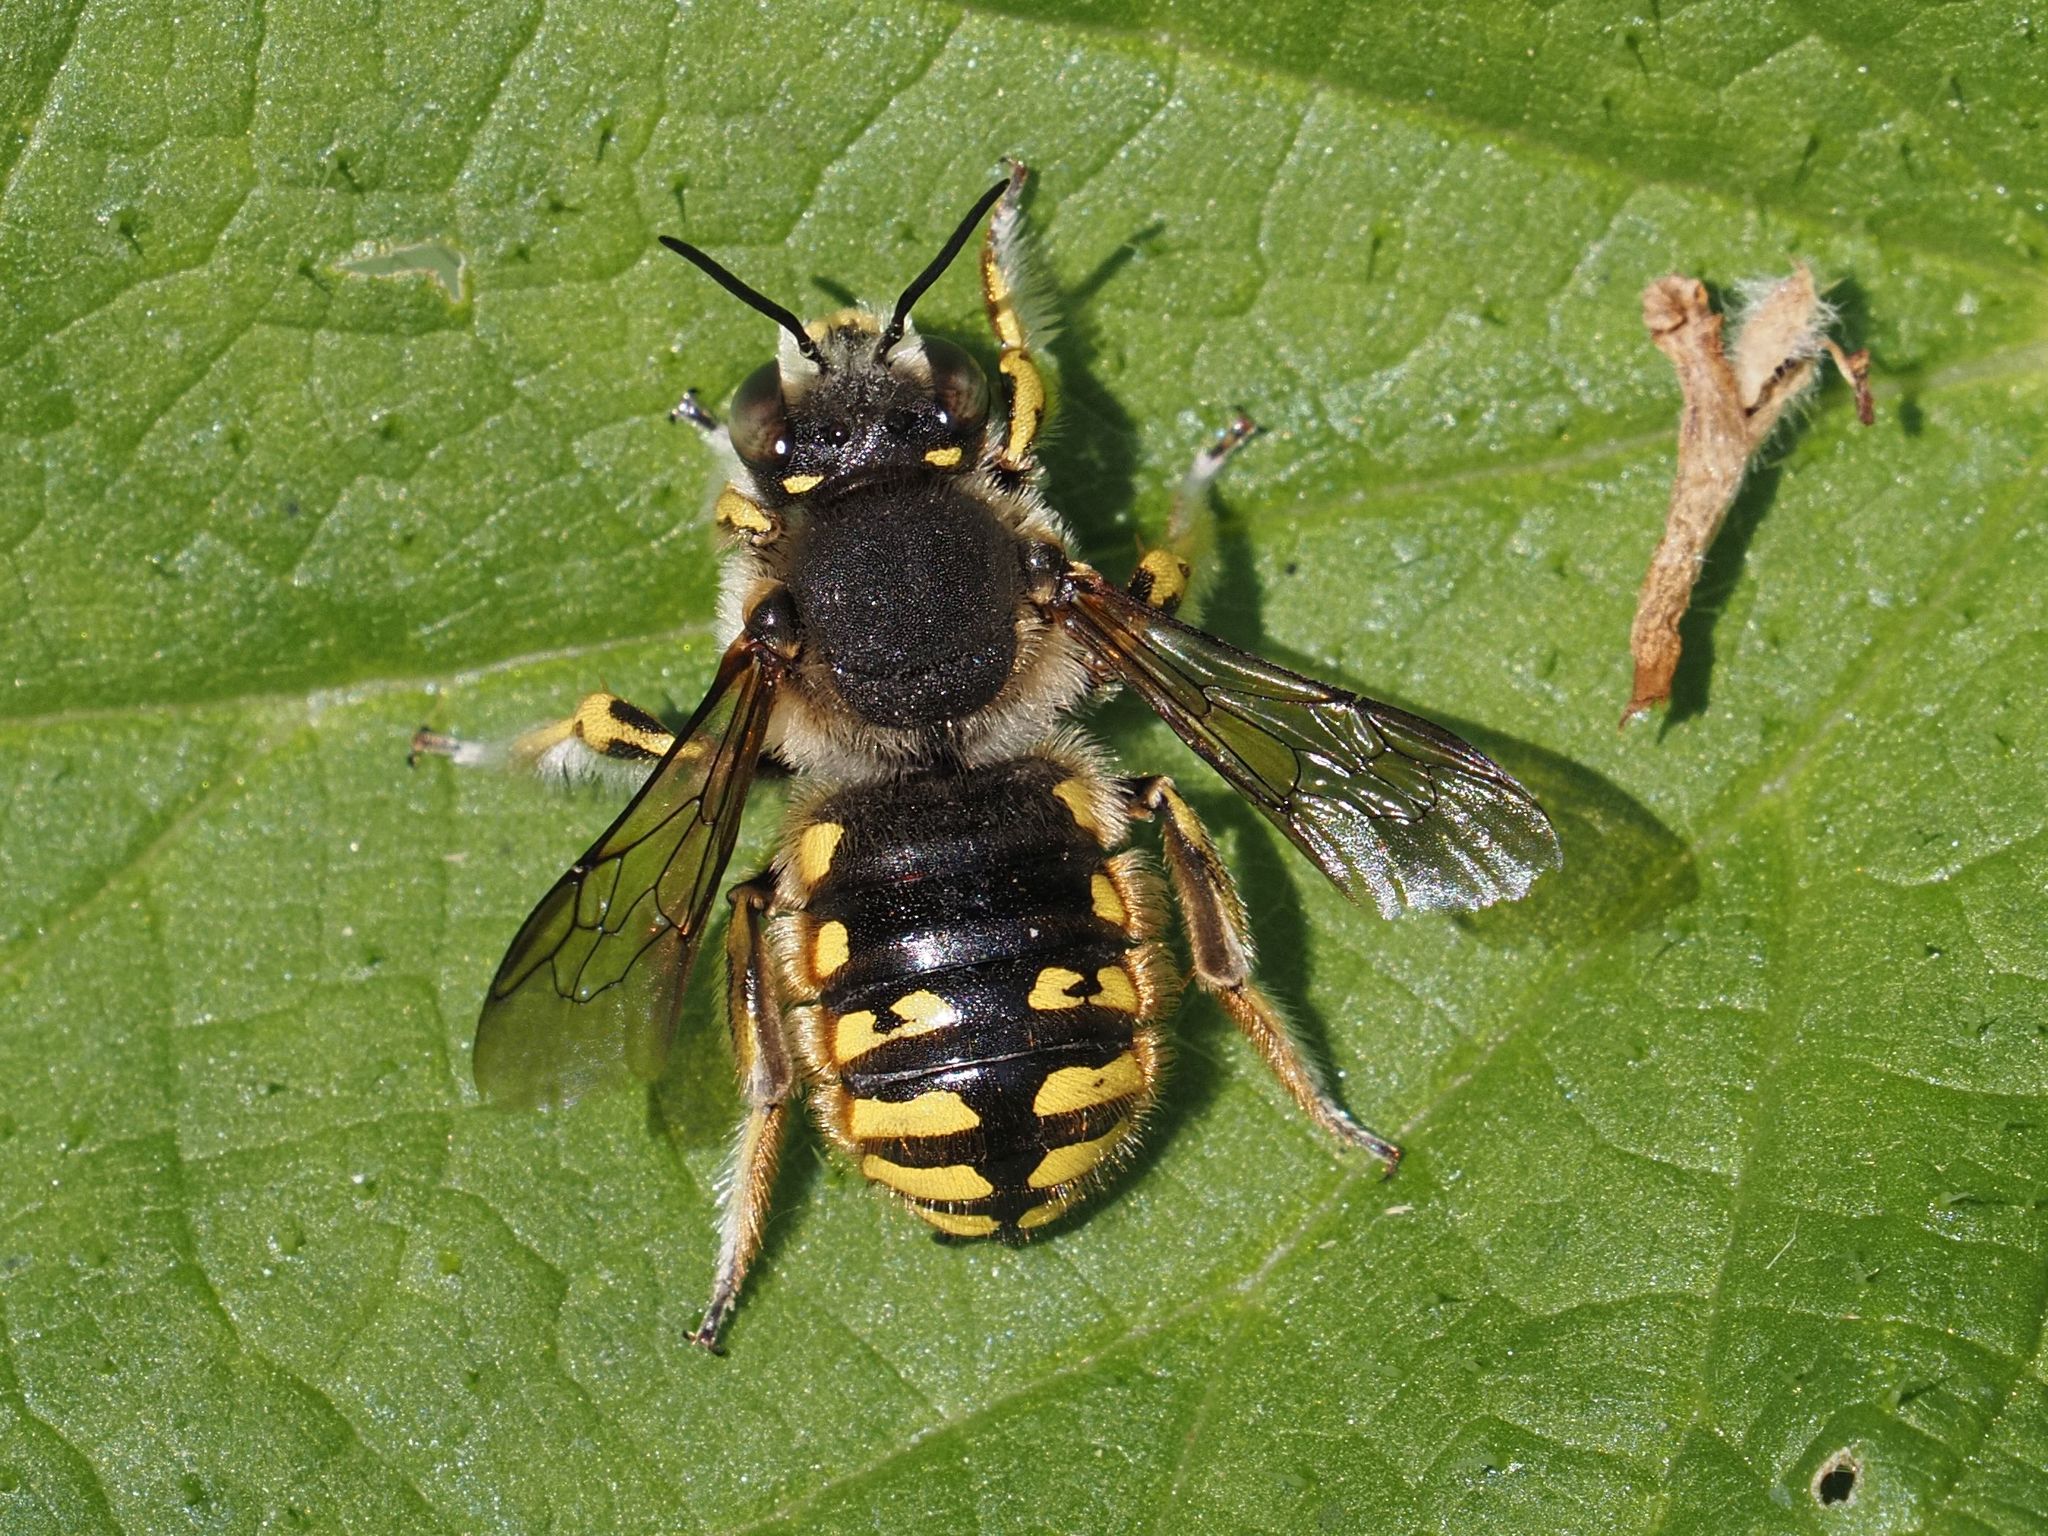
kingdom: Animalia
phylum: Arthropoda
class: Insecta
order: Hymenoptera
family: Megachilidae
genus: Anthidium
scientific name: Anthidium manicatum
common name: Wool carder bee
